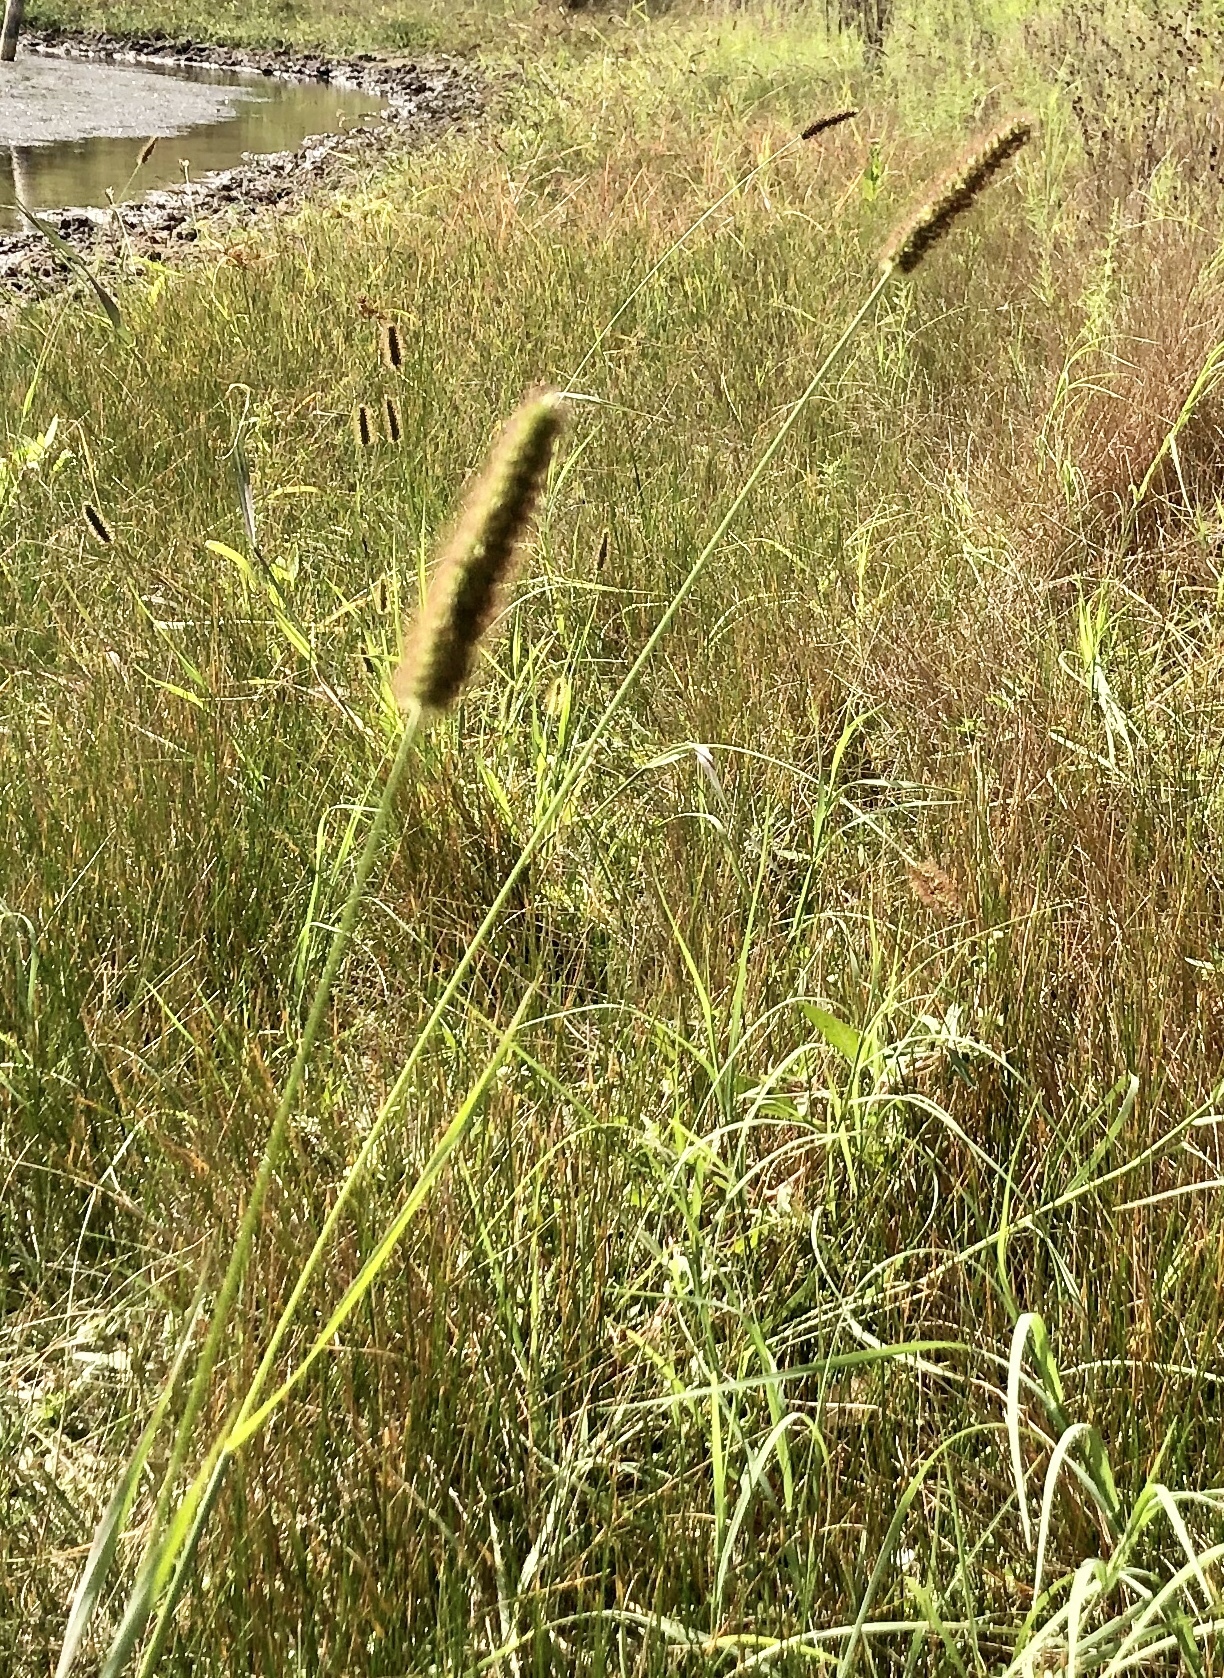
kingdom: Plantae
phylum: Tracheophyta
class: Liliopsida
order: Poales
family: Poaceae
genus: Setaria
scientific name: Setaria parviflora
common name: Knotroot bristle-grass
